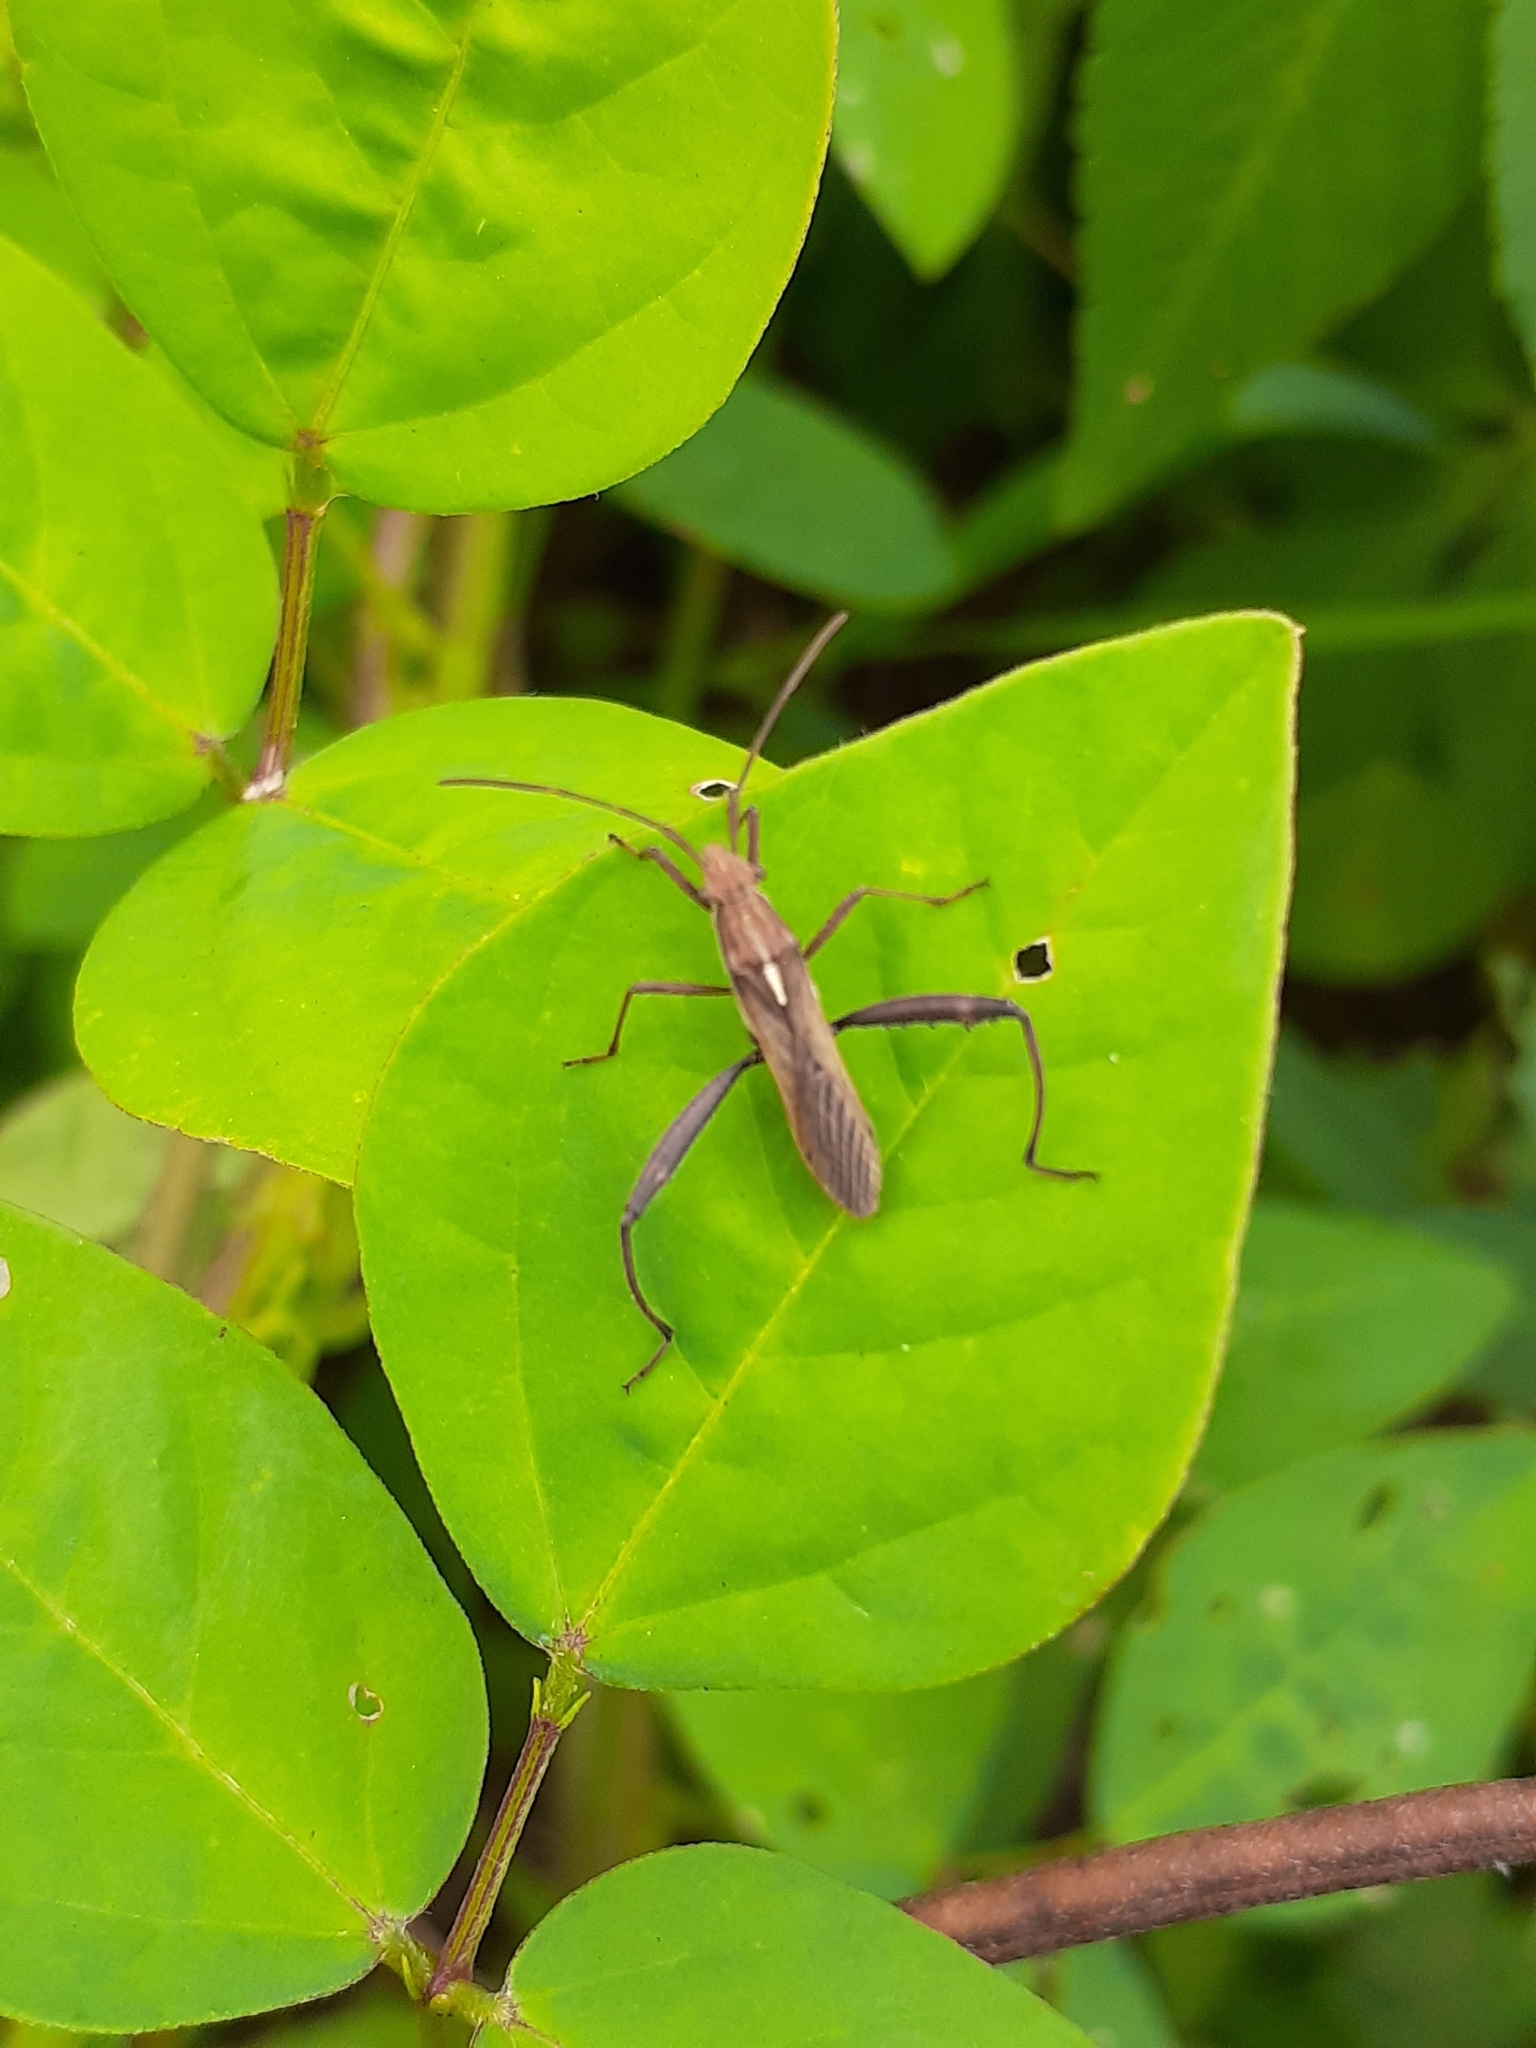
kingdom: Animalia
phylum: Arthropoda
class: Insecta
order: Hemiptera
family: Alydidae
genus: Melanacanthus
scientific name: Melanacanthus ferrugineus
